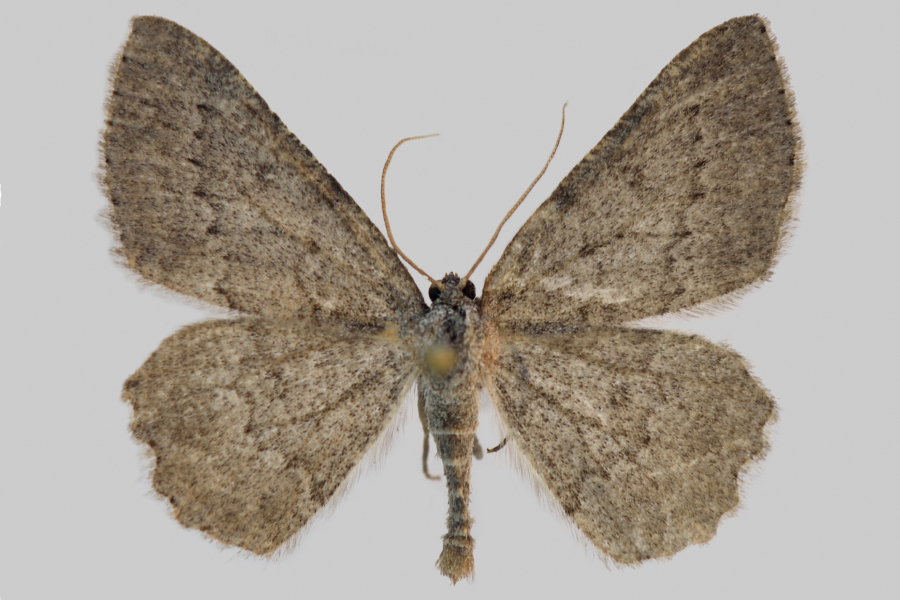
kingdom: Animalia
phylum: Arthropoda
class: Insecta
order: Lepidoptera
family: Geometridae
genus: Charissa
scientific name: Charissa ambiguata
